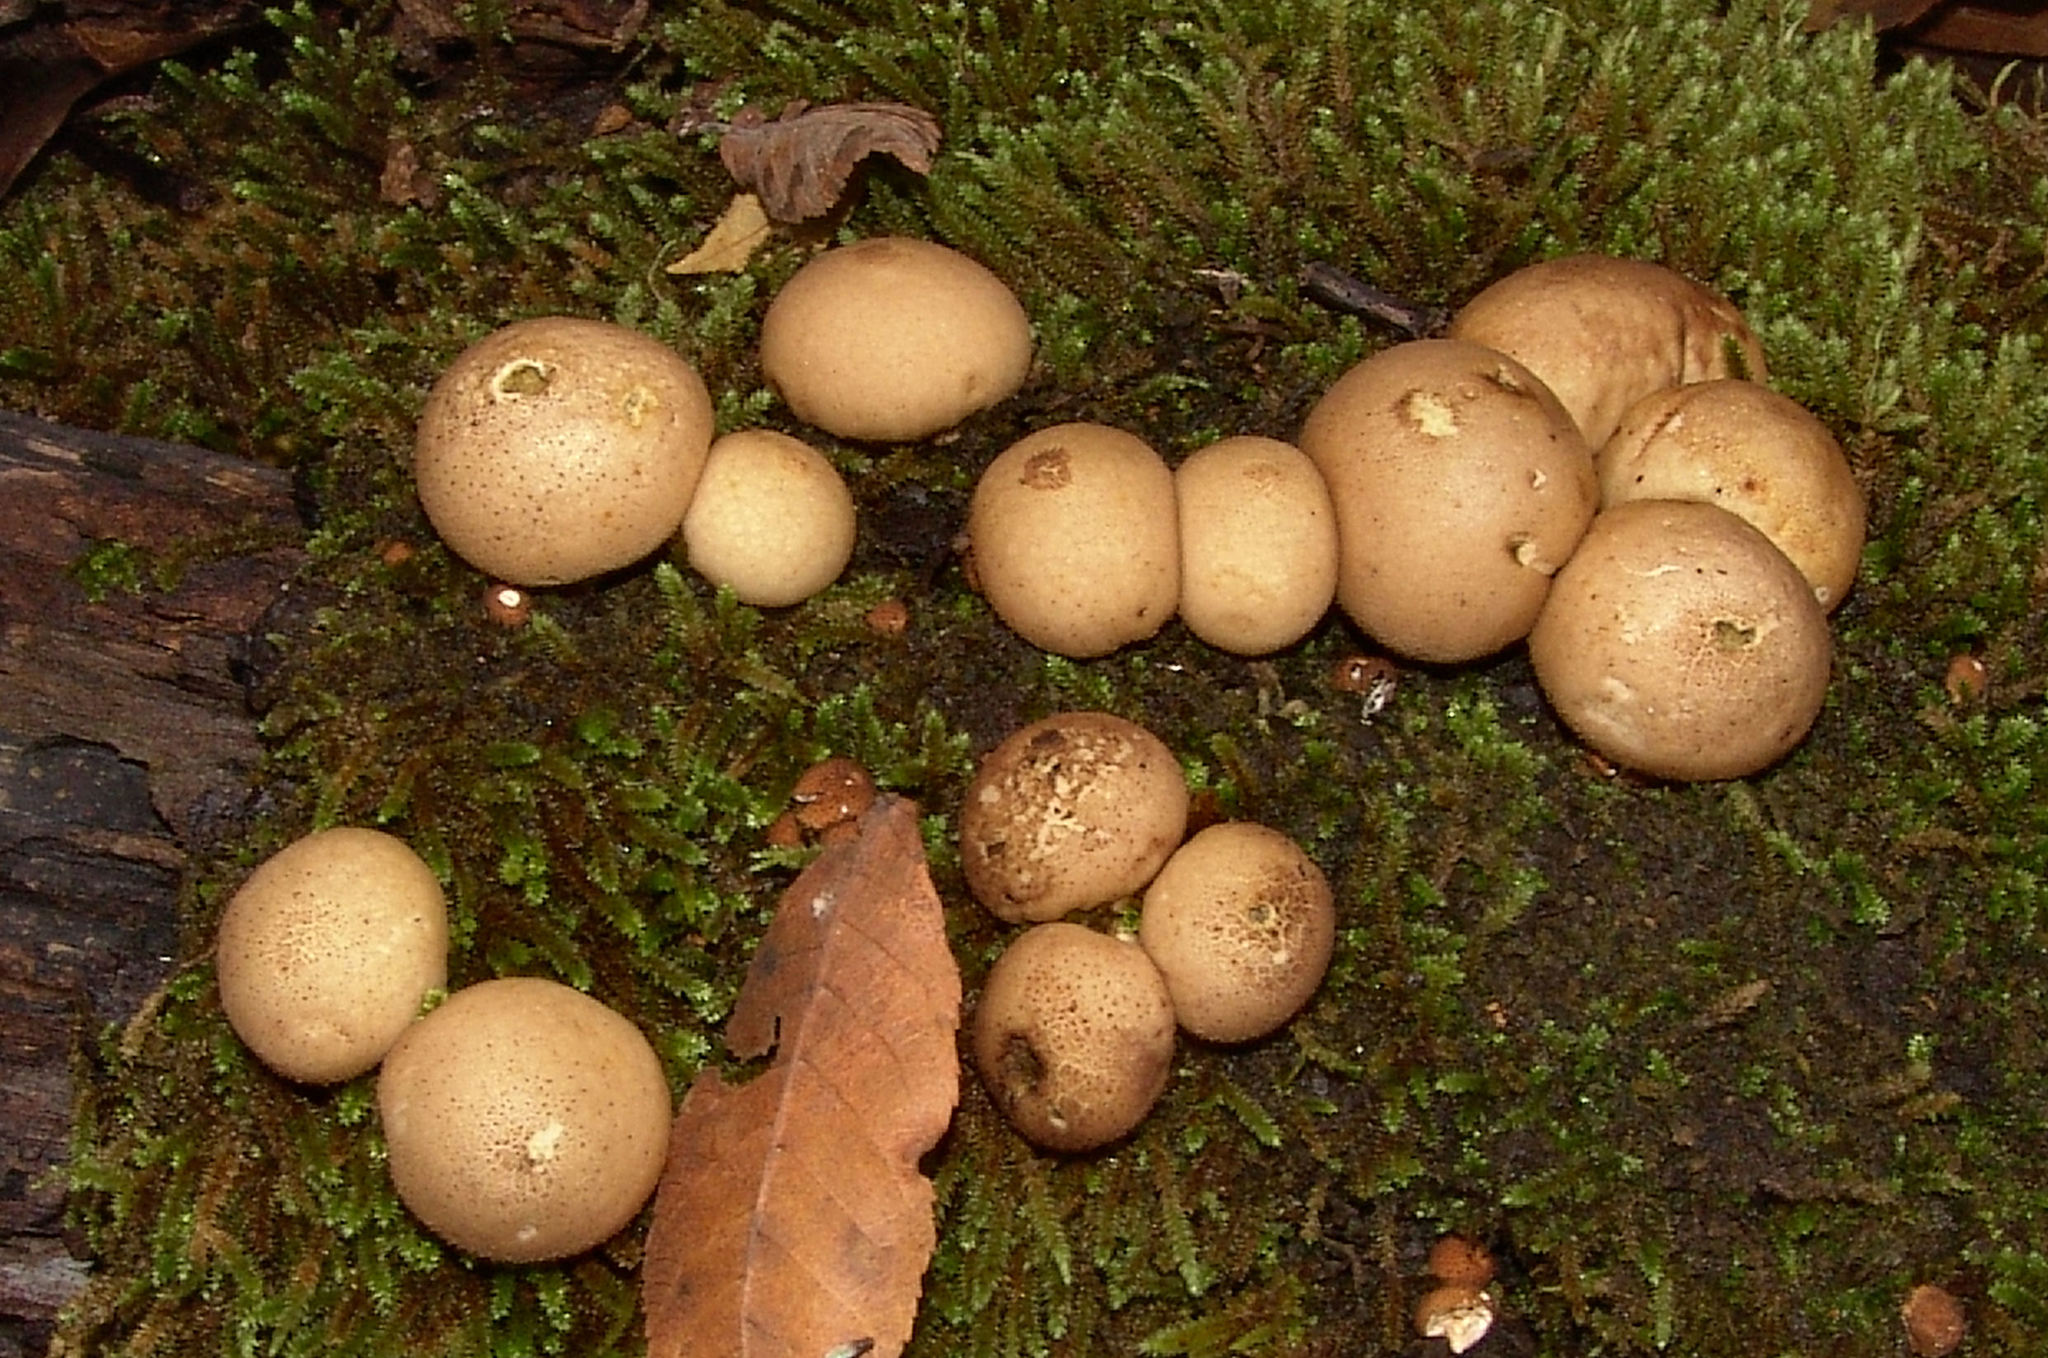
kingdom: Fungi
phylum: Basidiomycota
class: Agaricomycetes
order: Agaricales
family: Lycoperdaceae
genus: Apioperdon
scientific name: Apioperdon pyriforme
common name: Pear-shaped puffball
